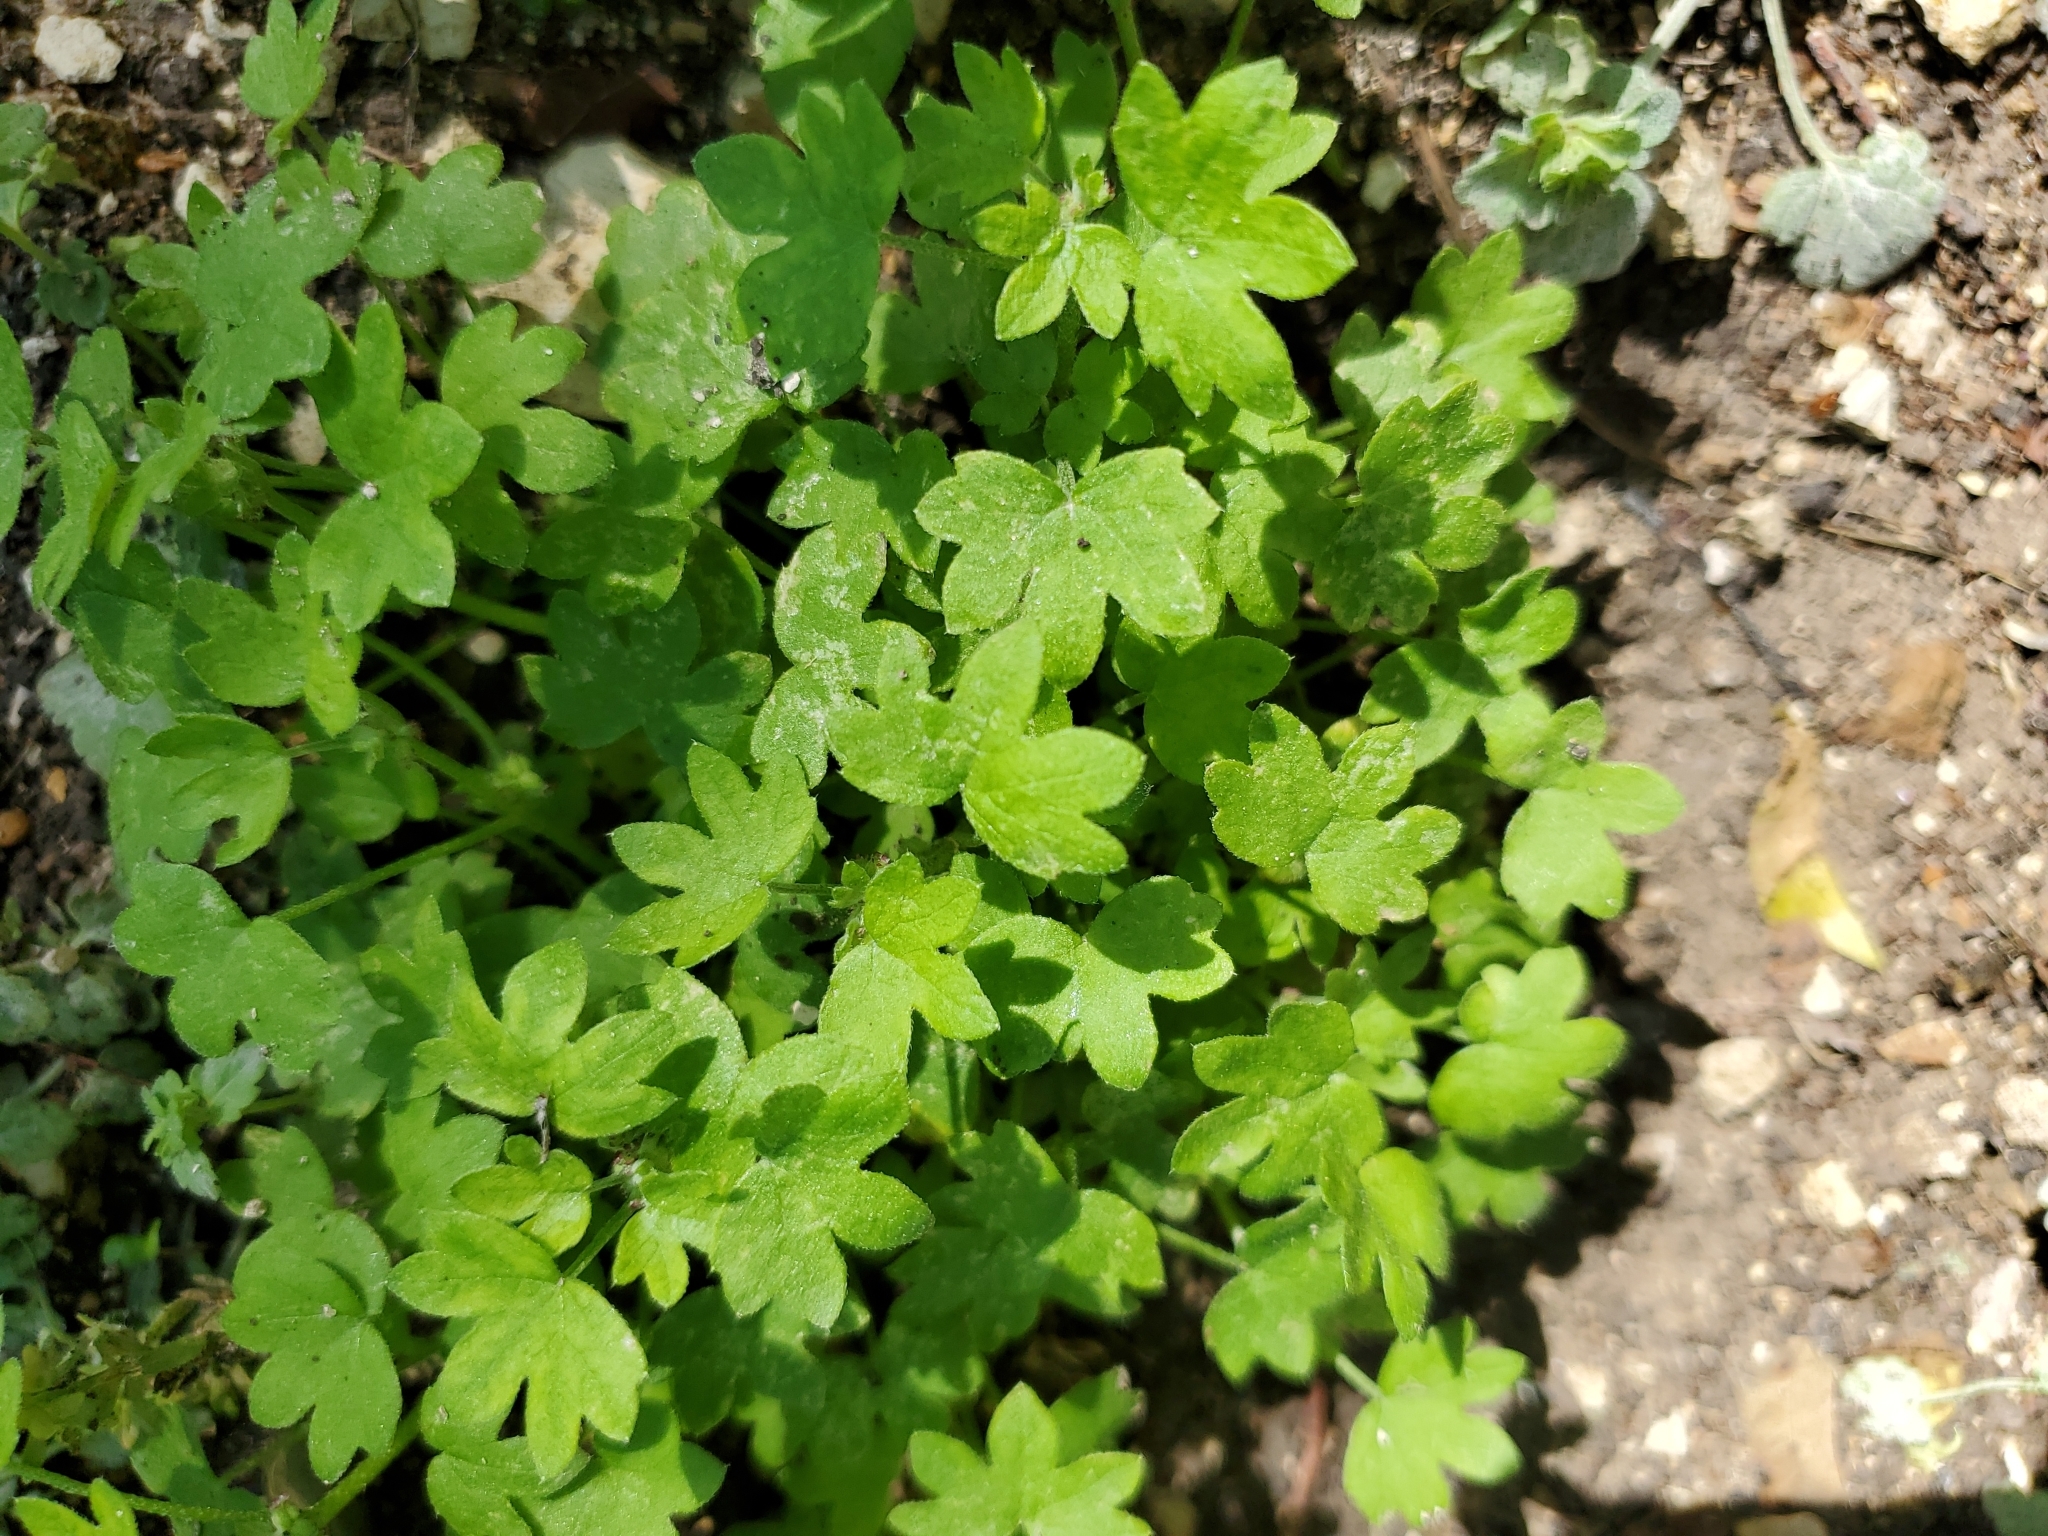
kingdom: Plantae
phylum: Tracheophyta
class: Magnoliopsida
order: Apiales
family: Apiaceae
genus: Bowlesia
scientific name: Bowlesia incana
